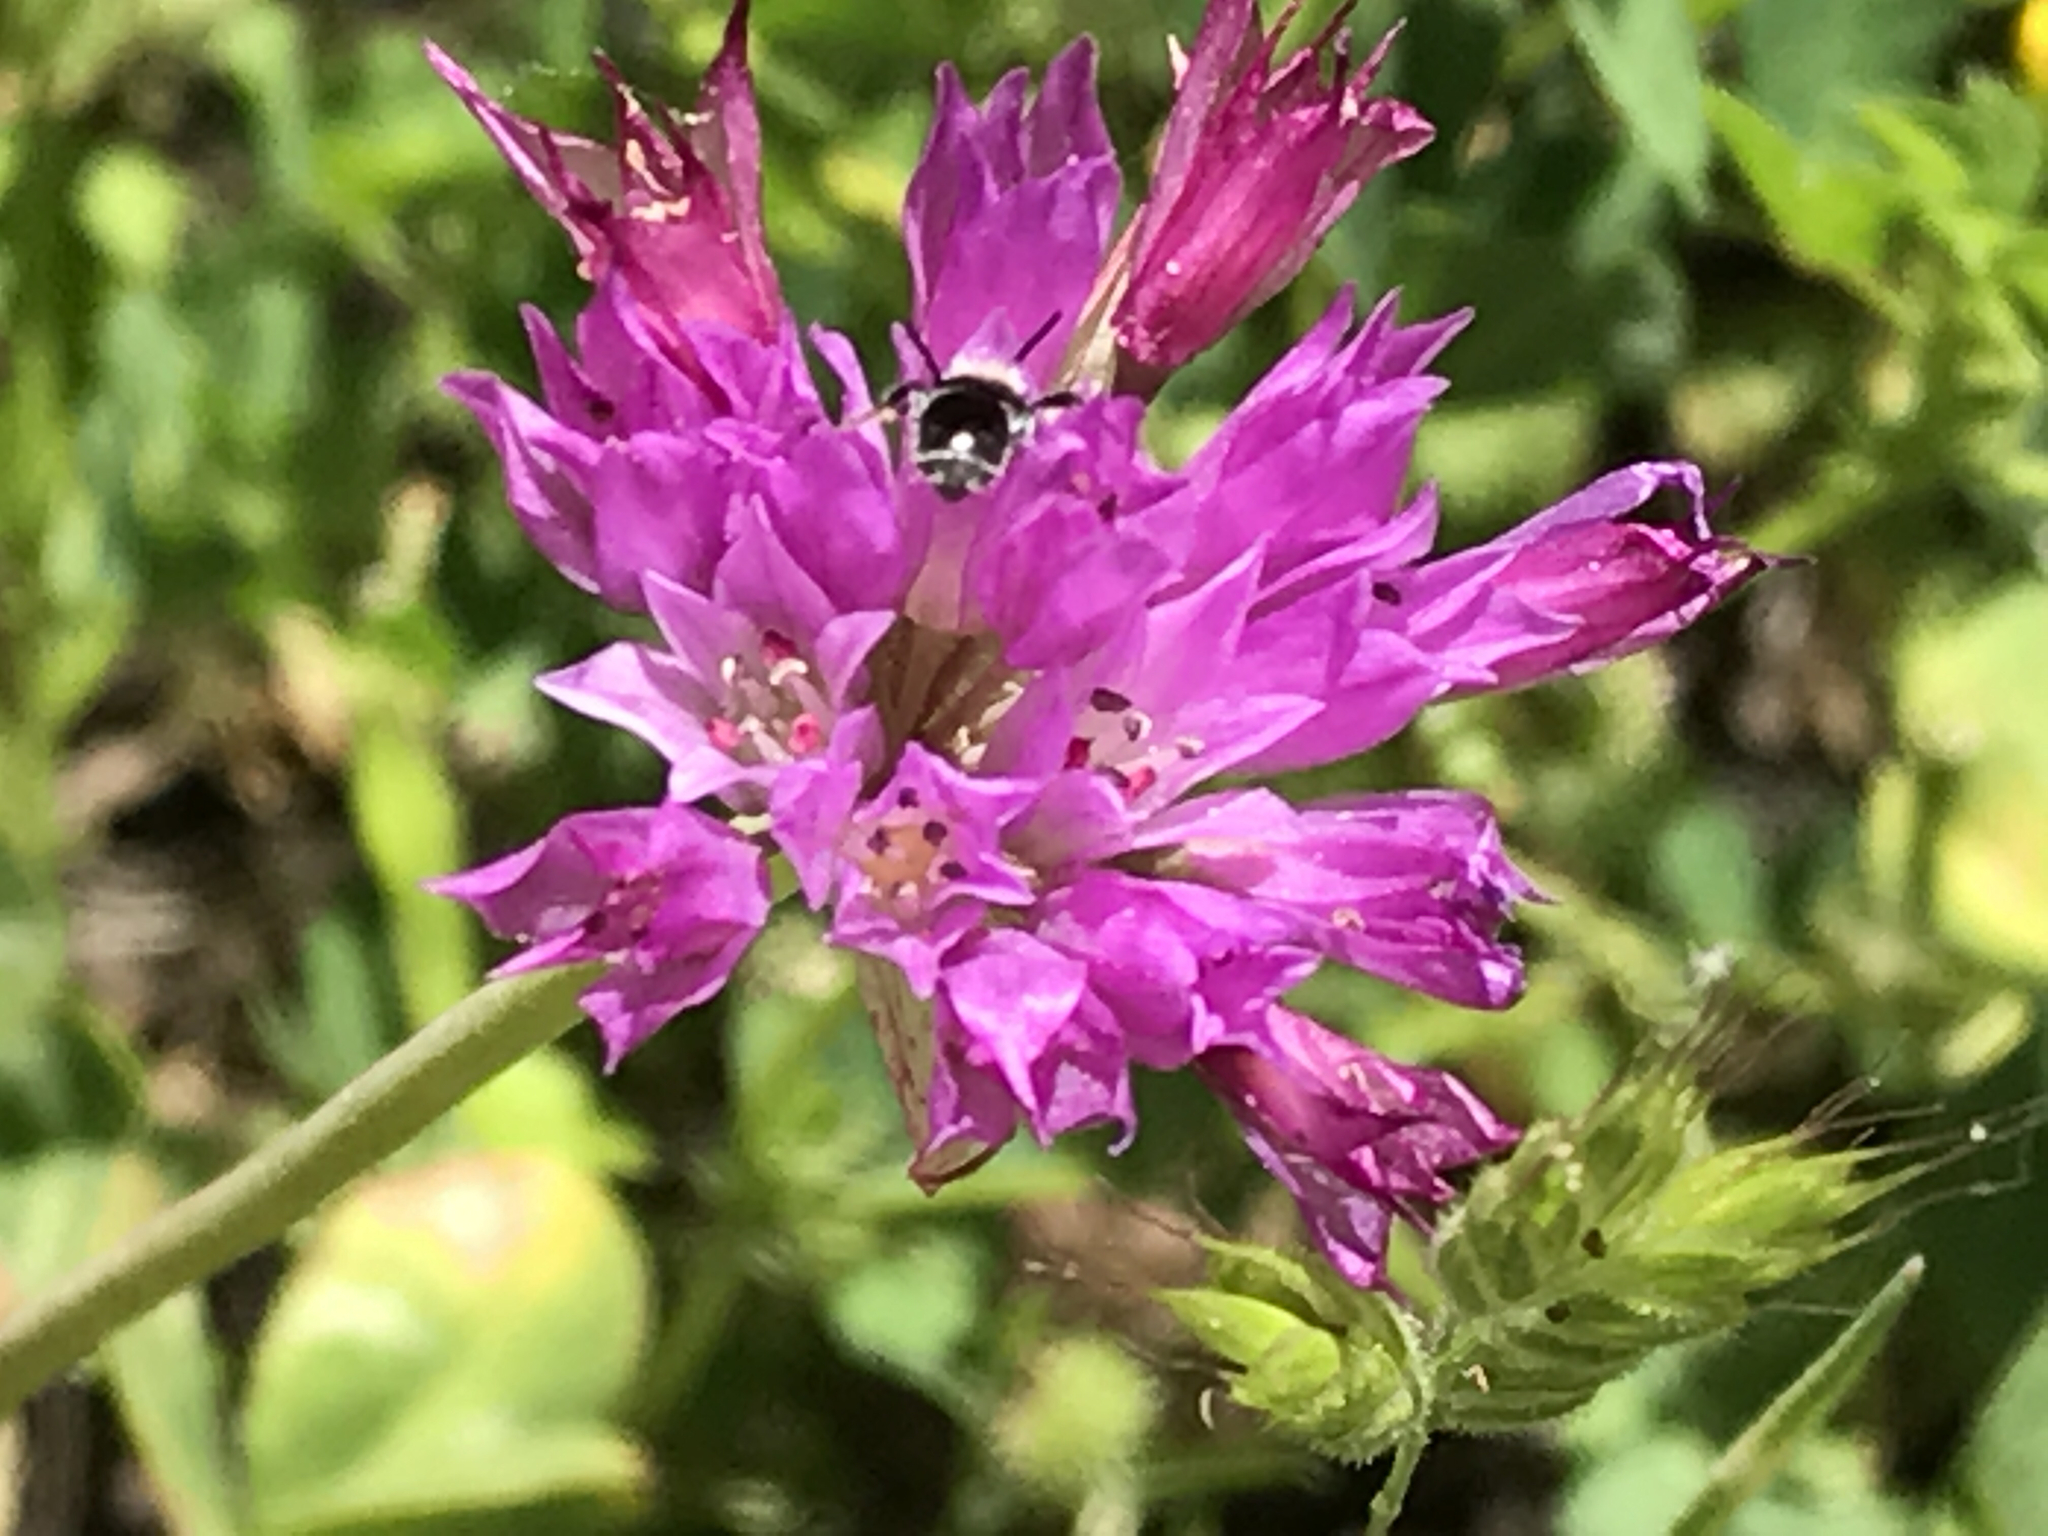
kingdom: Plantae
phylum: Tracheophyta
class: Liliopsida
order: Asparagales
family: Amaryllidaceae
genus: Allium
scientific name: Allium serra
